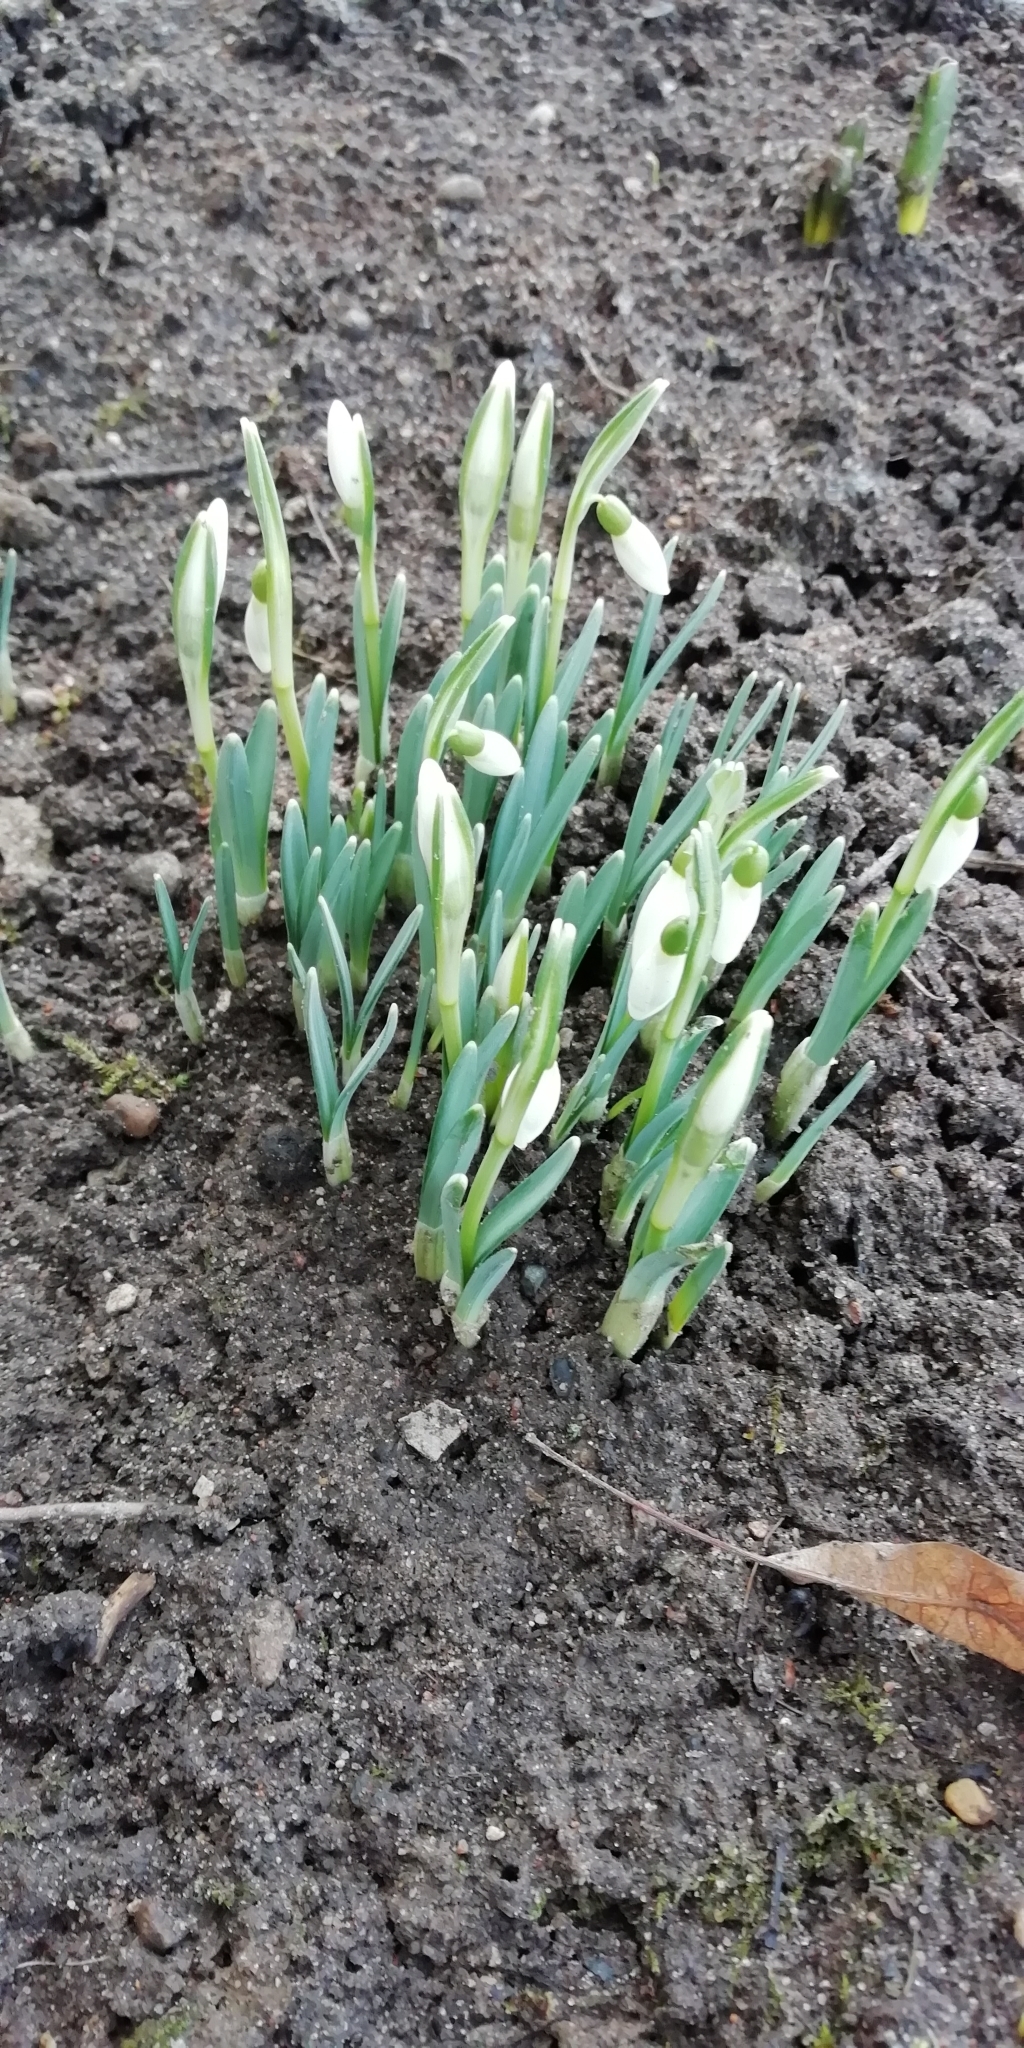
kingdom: Plantae
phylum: Tracheophyta
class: Liliopsida
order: Asparagales
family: Amaryllidaceae
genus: Galanthus
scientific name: Galanthus nivalis
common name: Snowdrop
